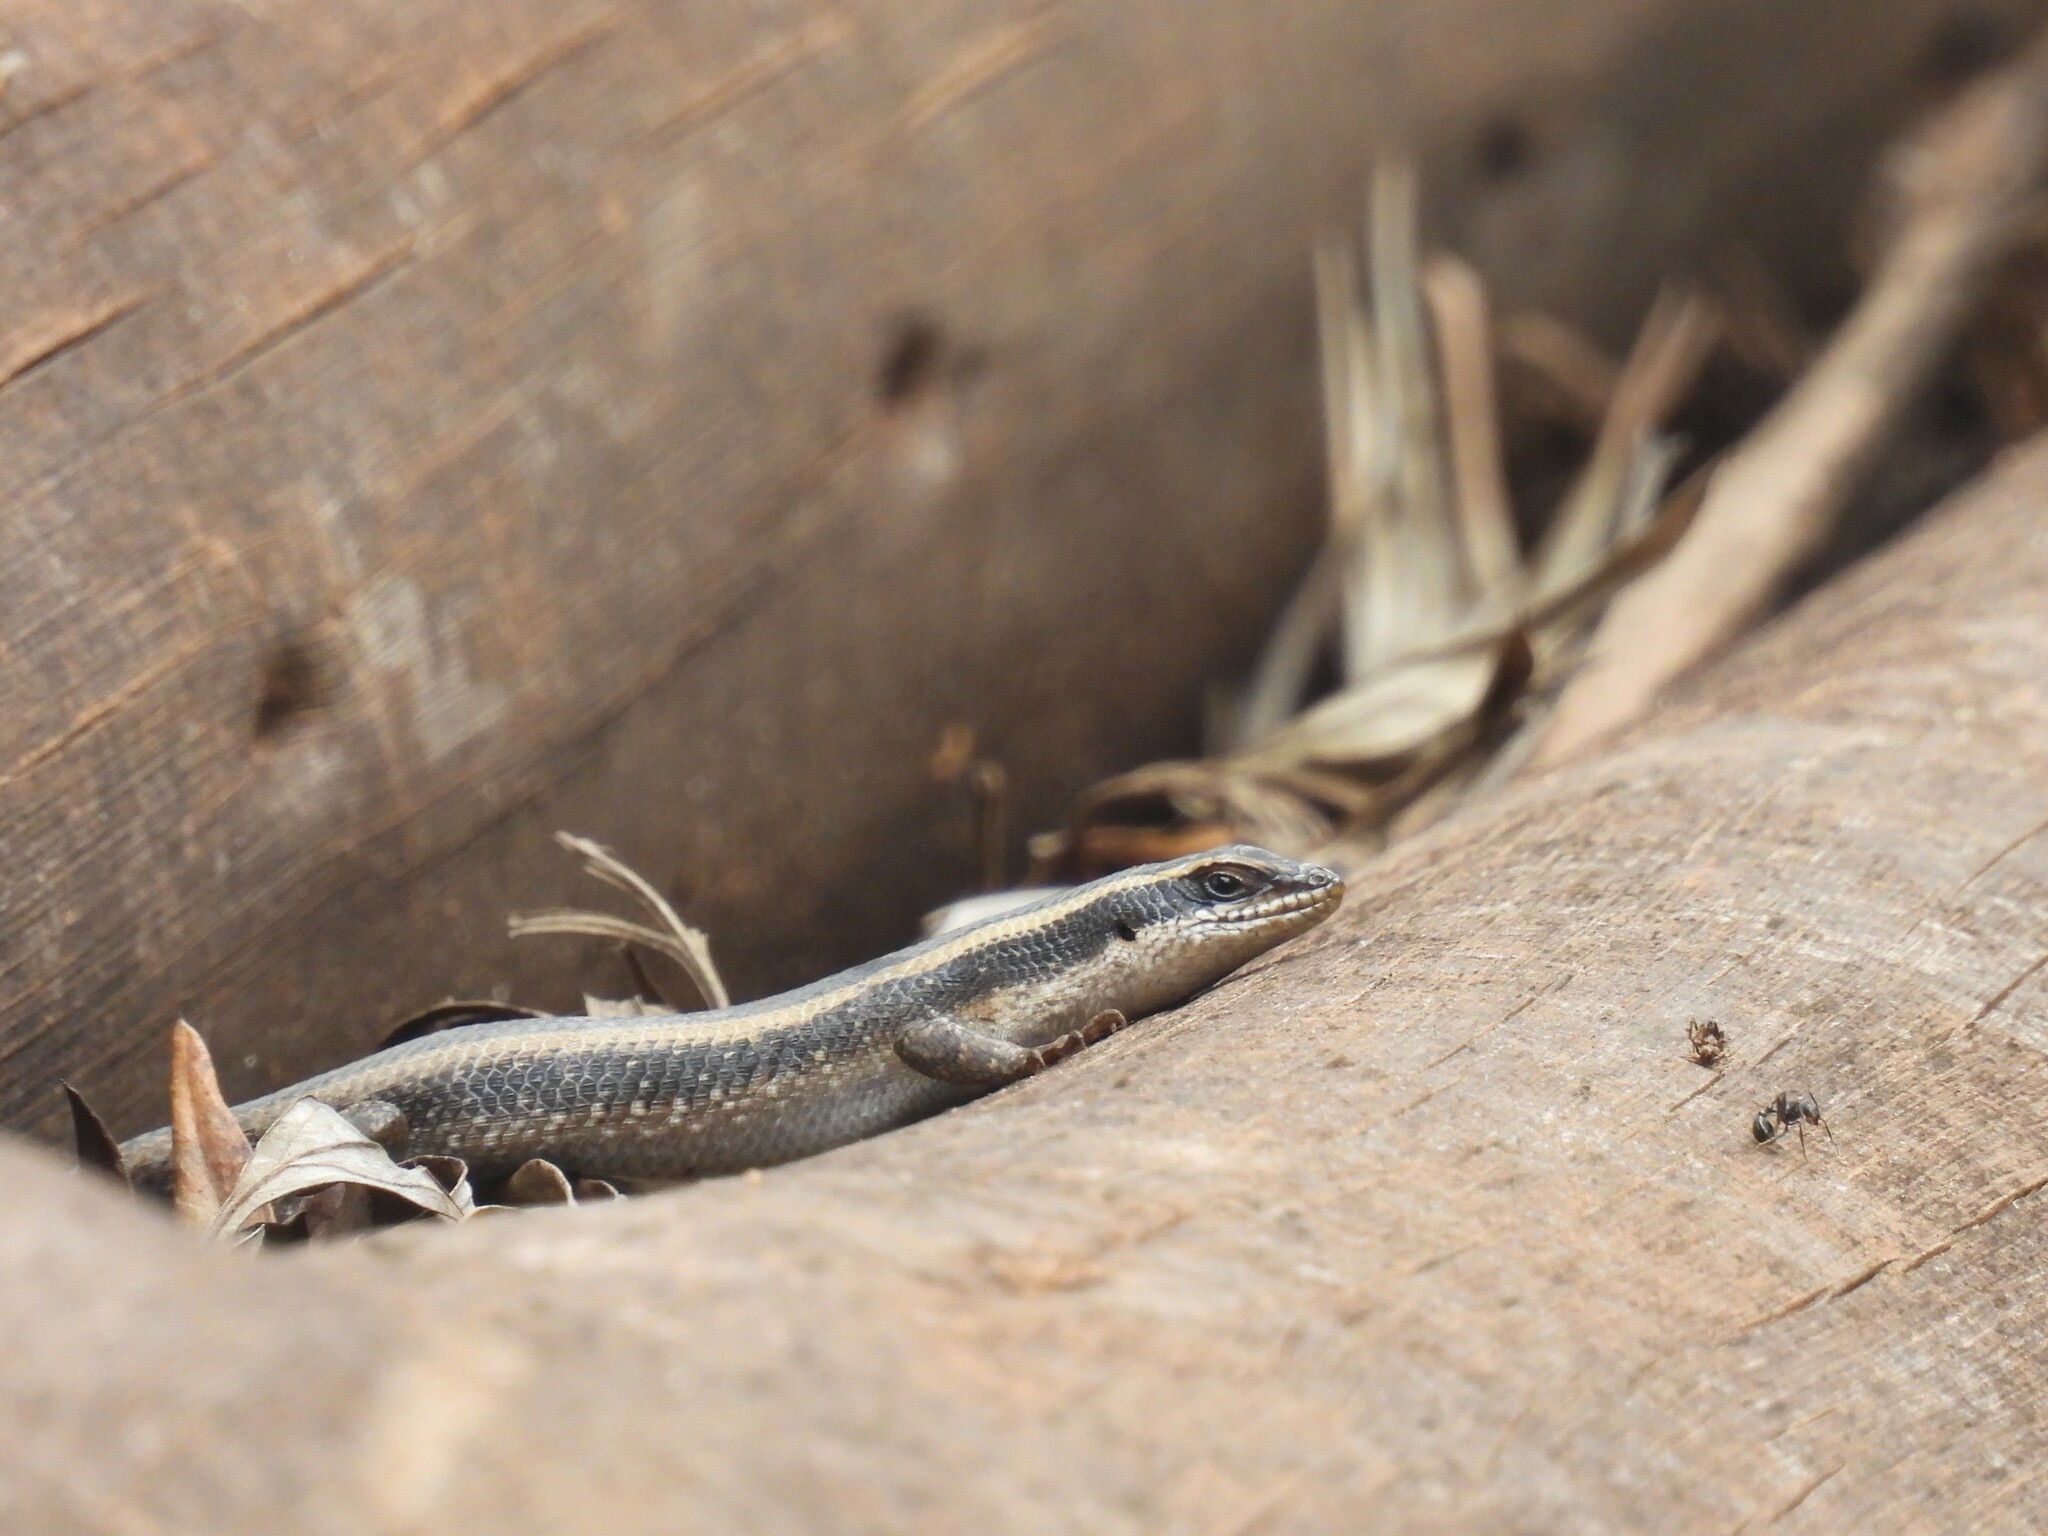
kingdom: Animalia
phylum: Chordata
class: Squamata
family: Scincidae
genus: Trachylepis
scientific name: Trachylepis striata
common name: African striped mabuya
